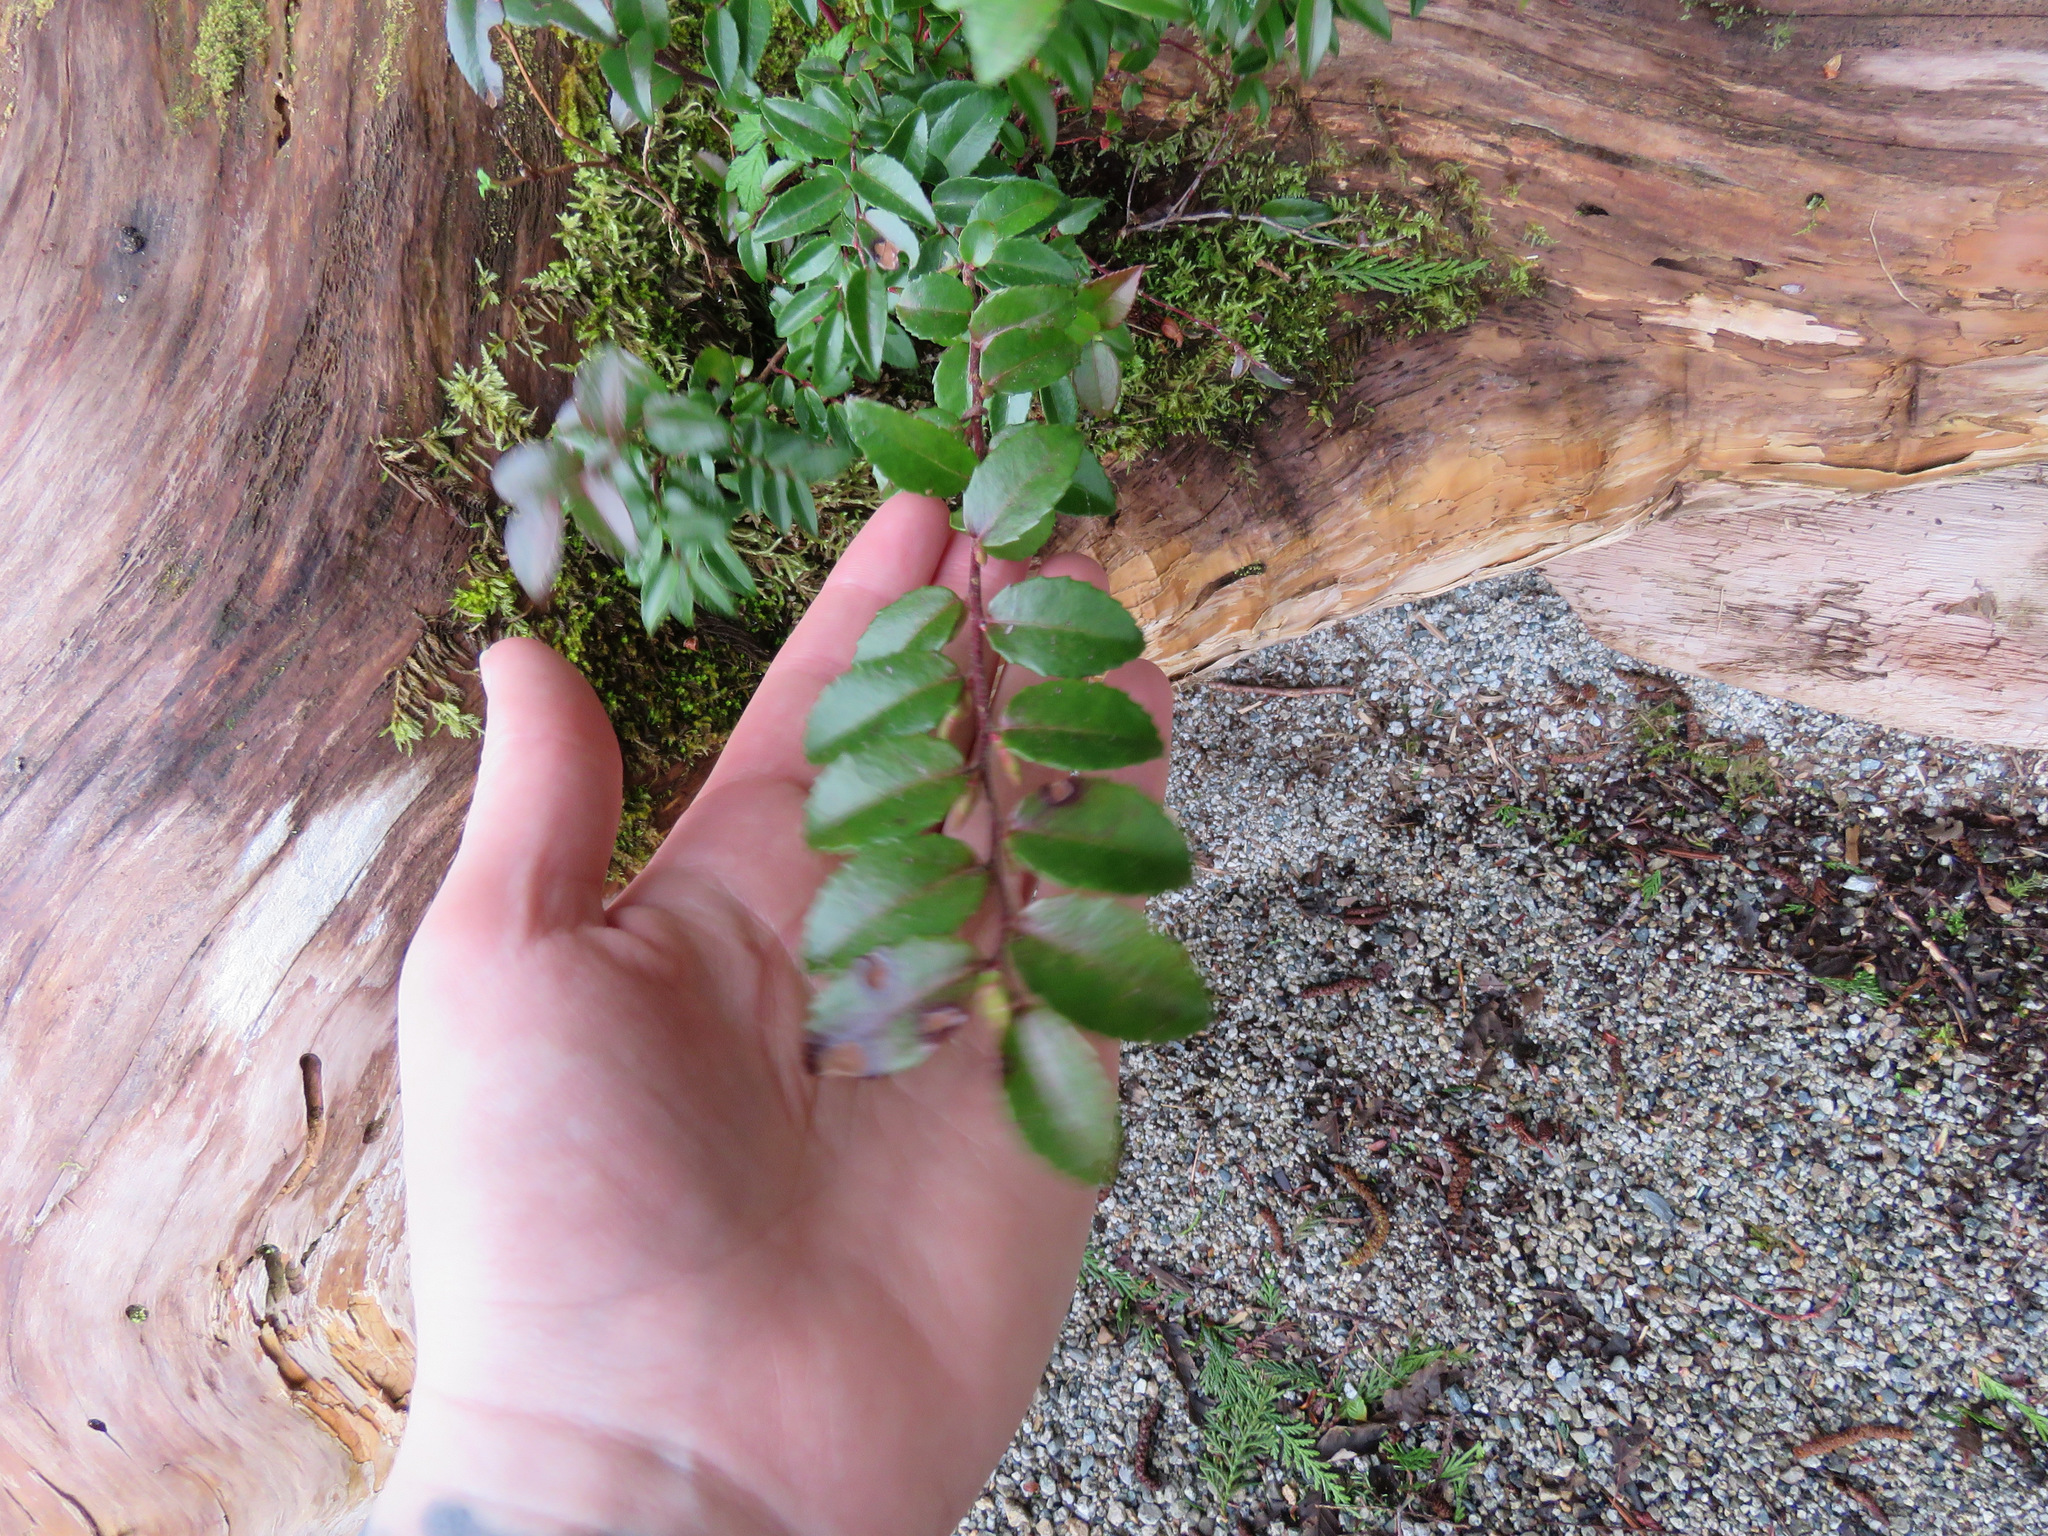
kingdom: Plantae
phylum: Tracheophyta
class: Magnoliopsida
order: Ericales
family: Ericaceae
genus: Vaccinium
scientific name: Vaccinium ovatum
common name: California-huckleberry
